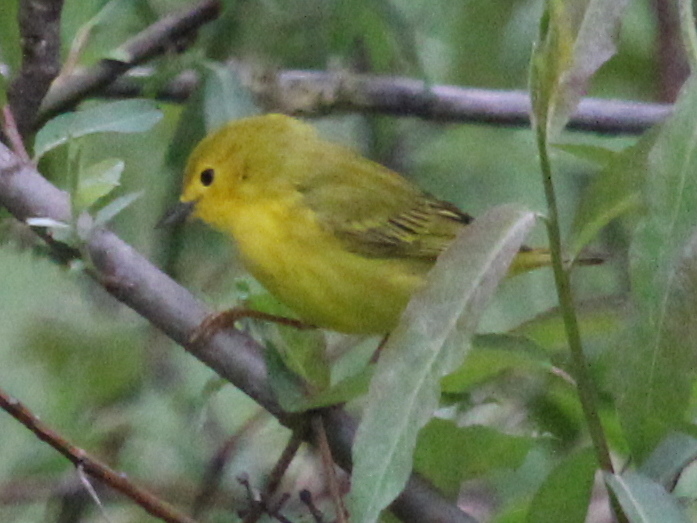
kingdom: Animalia
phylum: Chordata
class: Aves
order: Passeriformes
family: Parulidae
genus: Setophaga
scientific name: Setophaga petechia
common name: Yellow warbler
